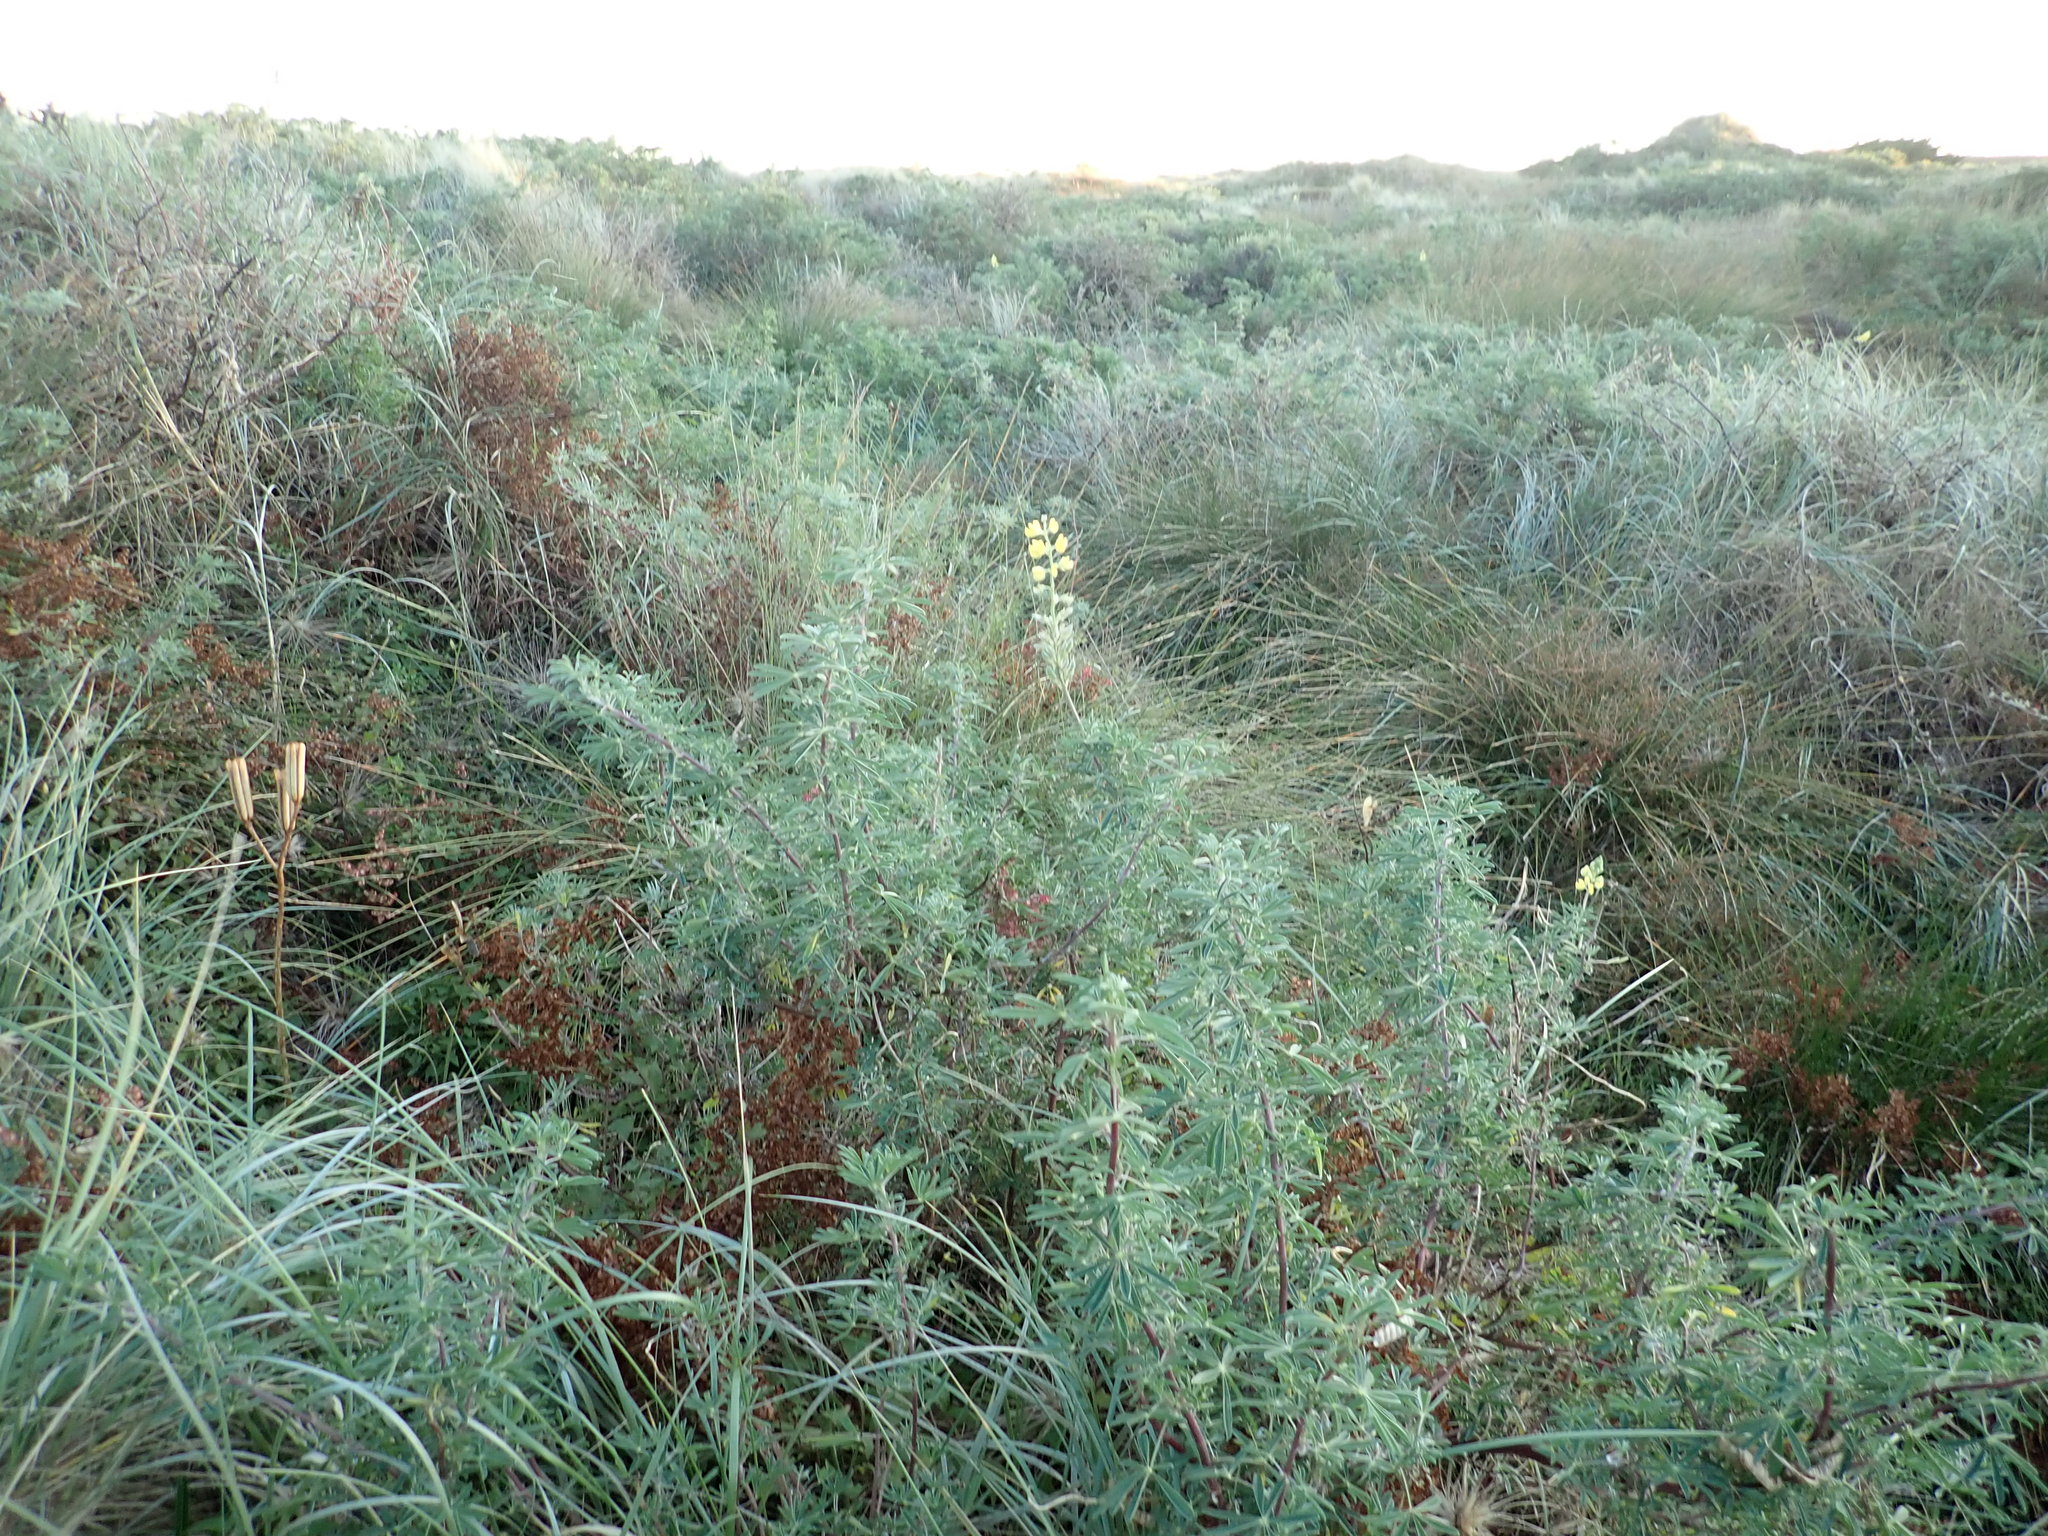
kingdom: Plantae
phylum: Tracheophyta
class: Magnoliopsida
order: Caryophyllales
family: Polygonaceae
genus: Rumex
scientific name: Rumex sagittatus
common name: Climbing dock
